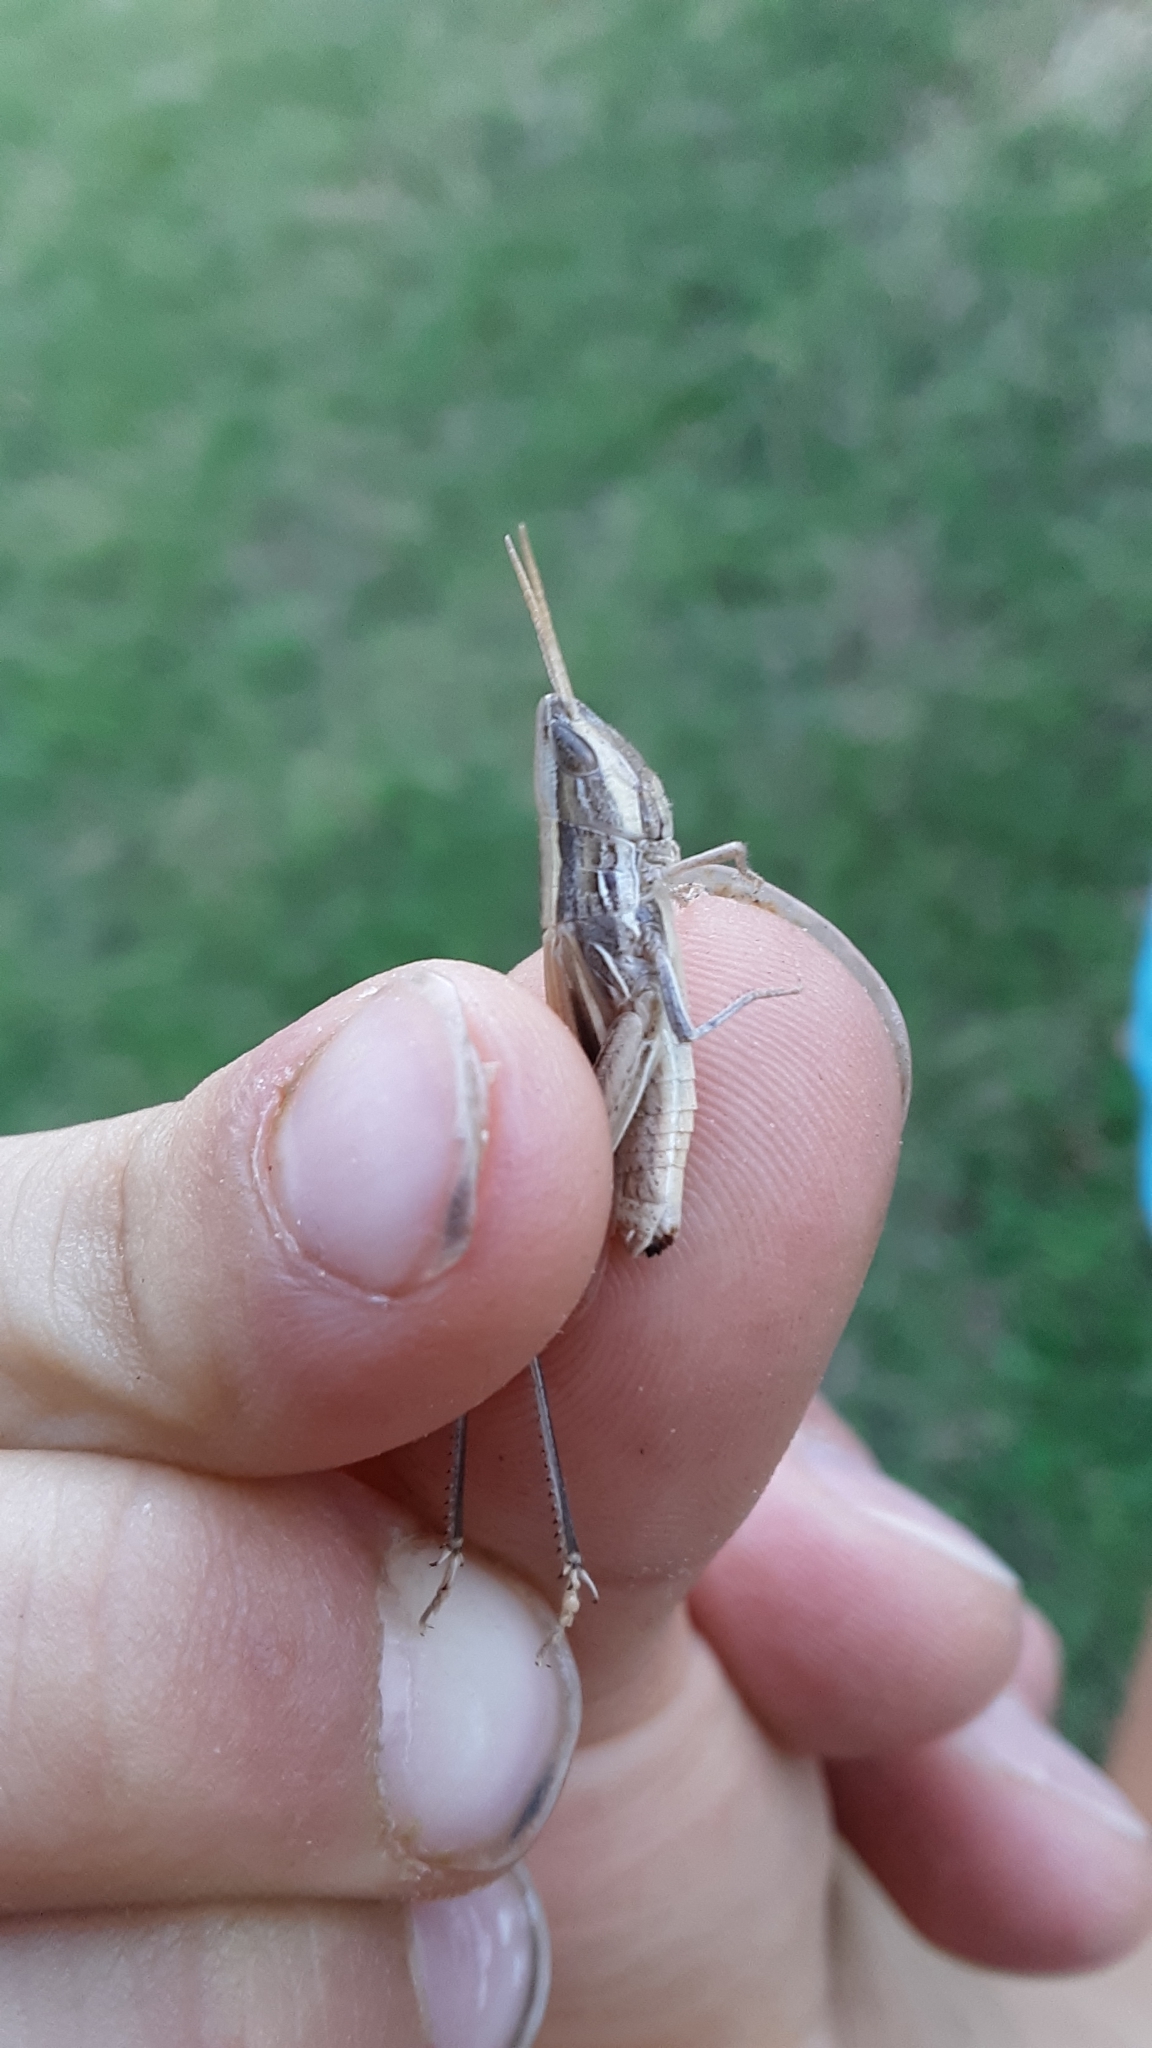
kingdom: Animalia
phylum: Arthropoda
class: Insecta
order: Orthoptera
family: Acrididae
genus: Opeia
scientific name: Opeia obscura
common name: Obscure grasshopper
